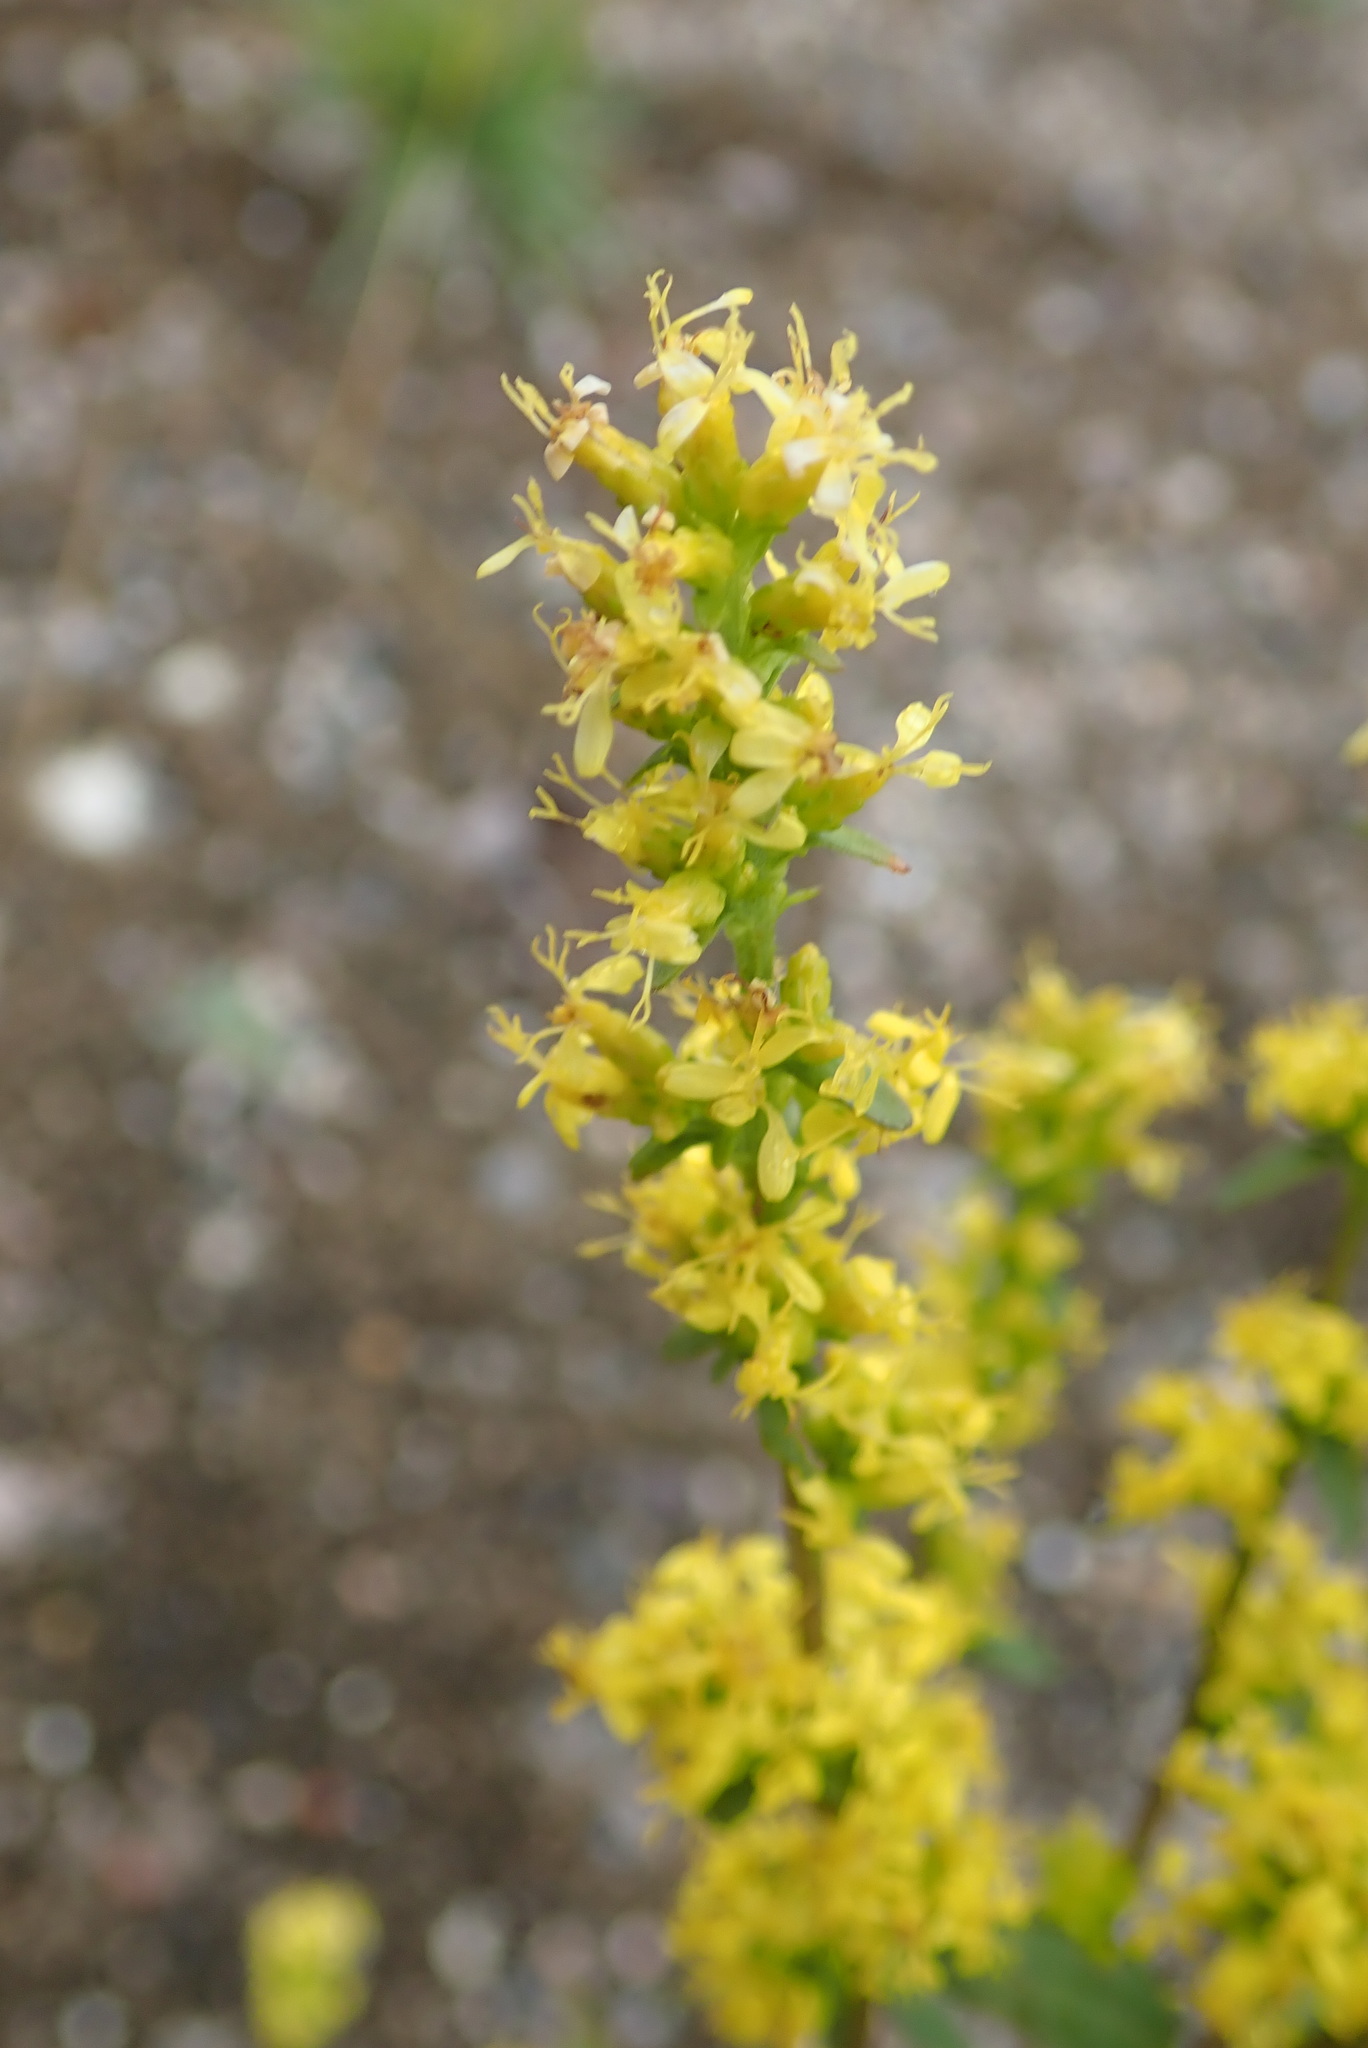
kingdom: Plantae
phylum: Tracheophyta
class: Magnoliopsida
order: Asterales
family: Asteraceae
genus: Solidago
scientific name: Solidago hispida
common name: Hairy goldenrod
